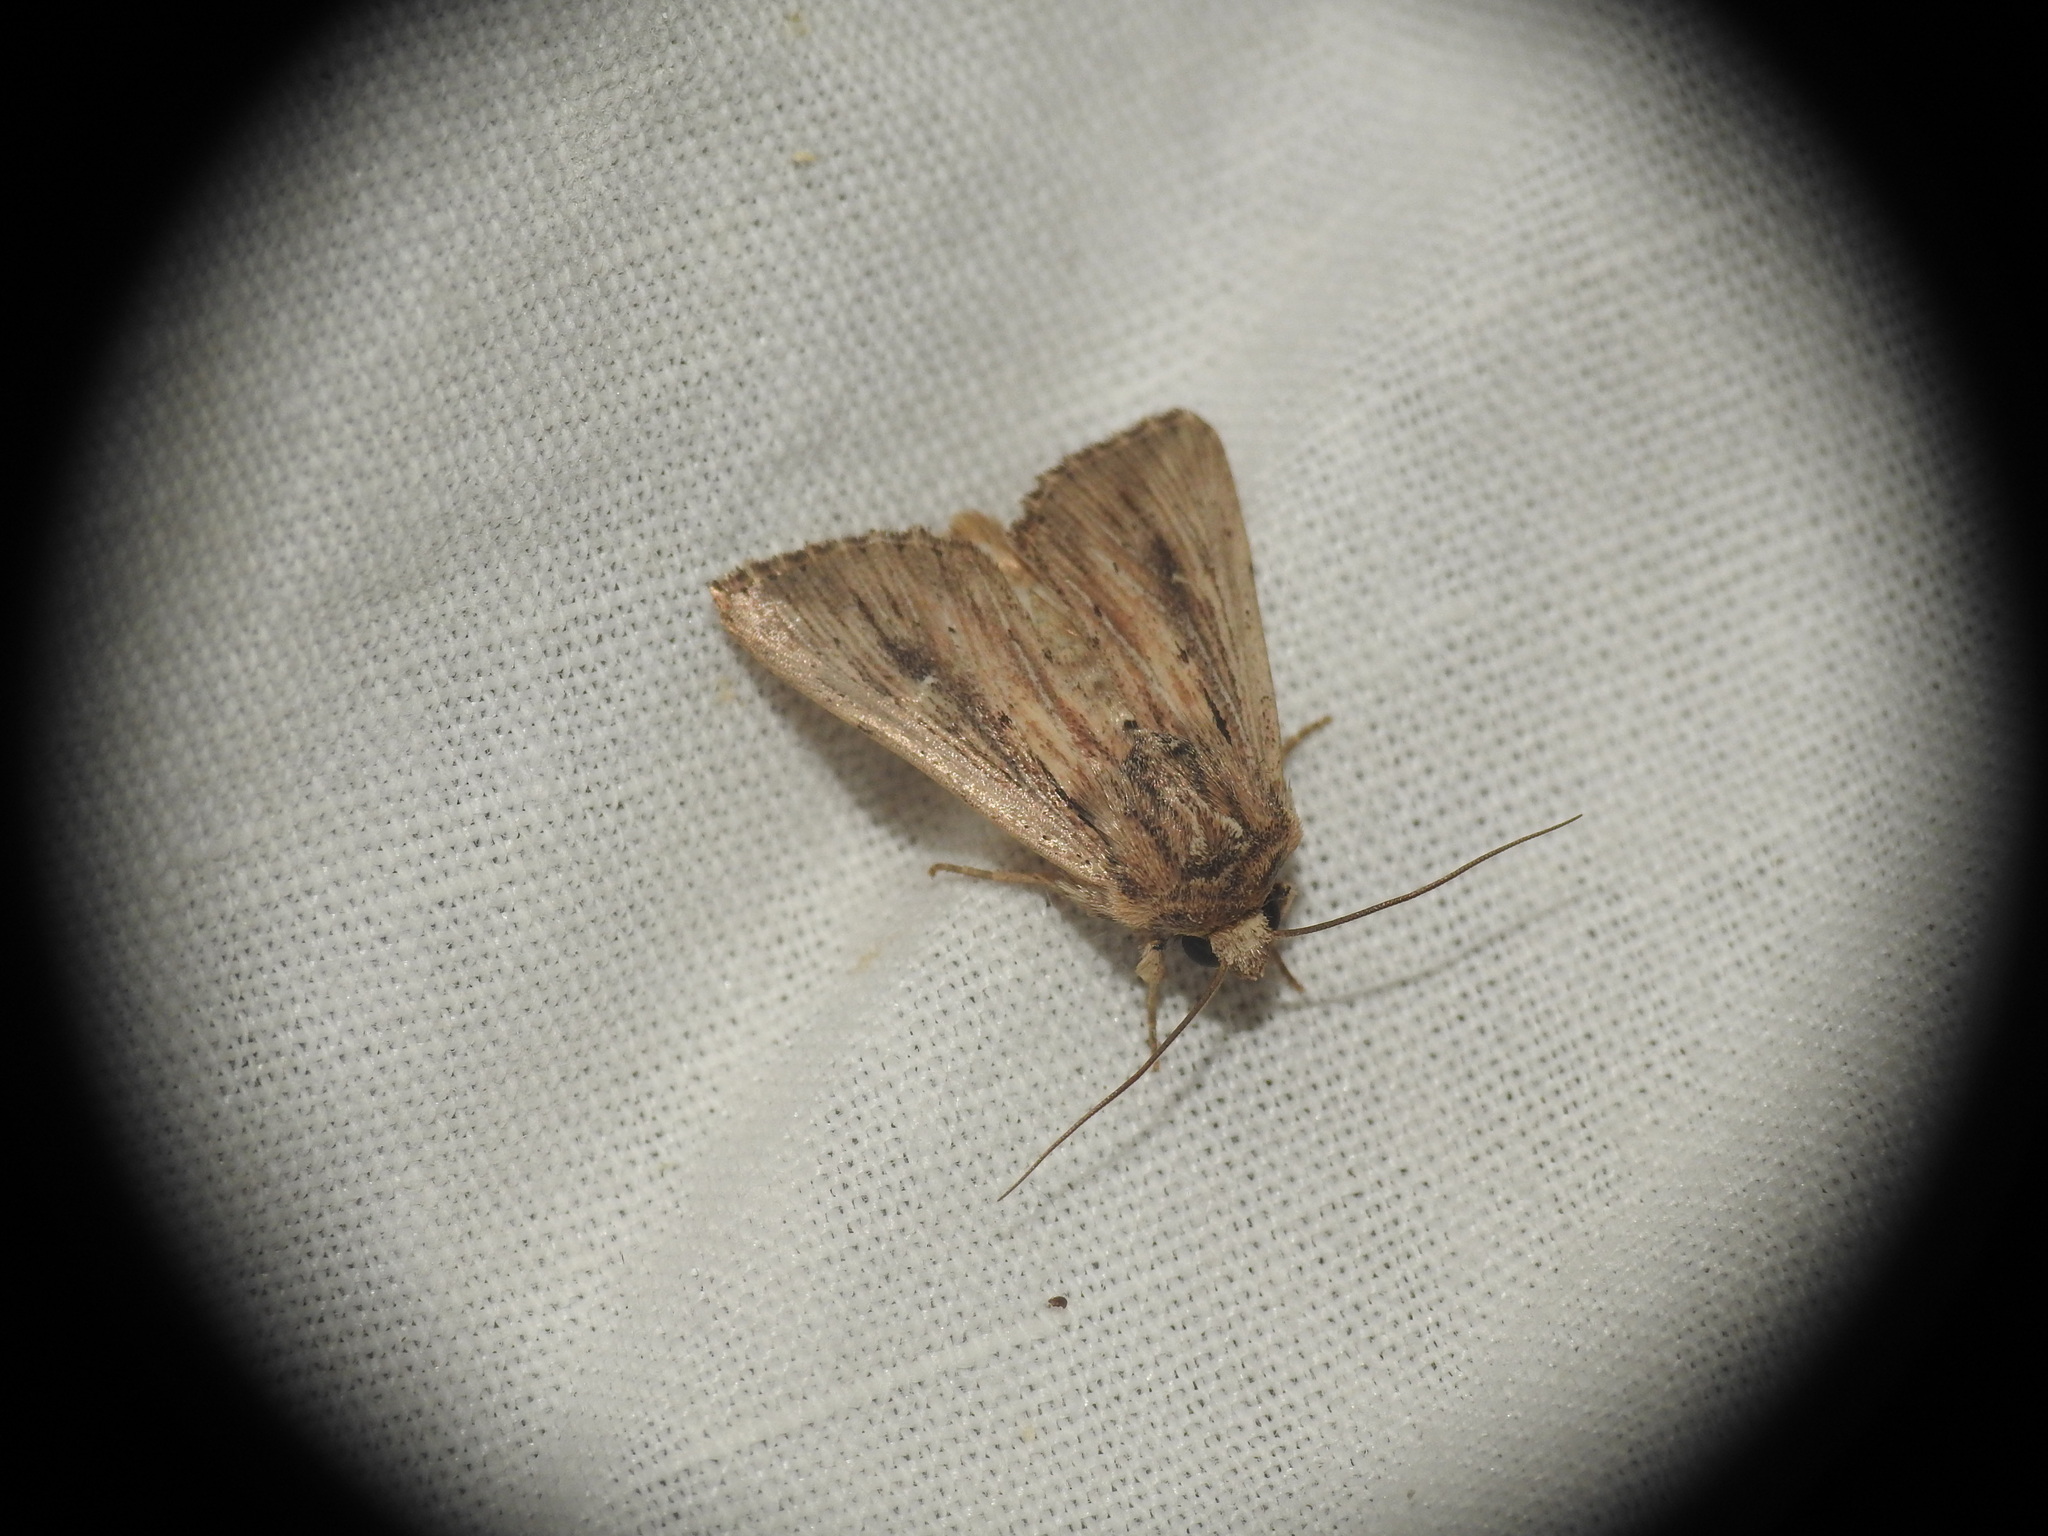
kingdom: Animalia
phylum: Arthropoda
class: Insecta
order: Lepidoptera
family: Noctuidae
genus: Leucania
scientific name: Leucania putrescens
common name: Devonshire wainscot
